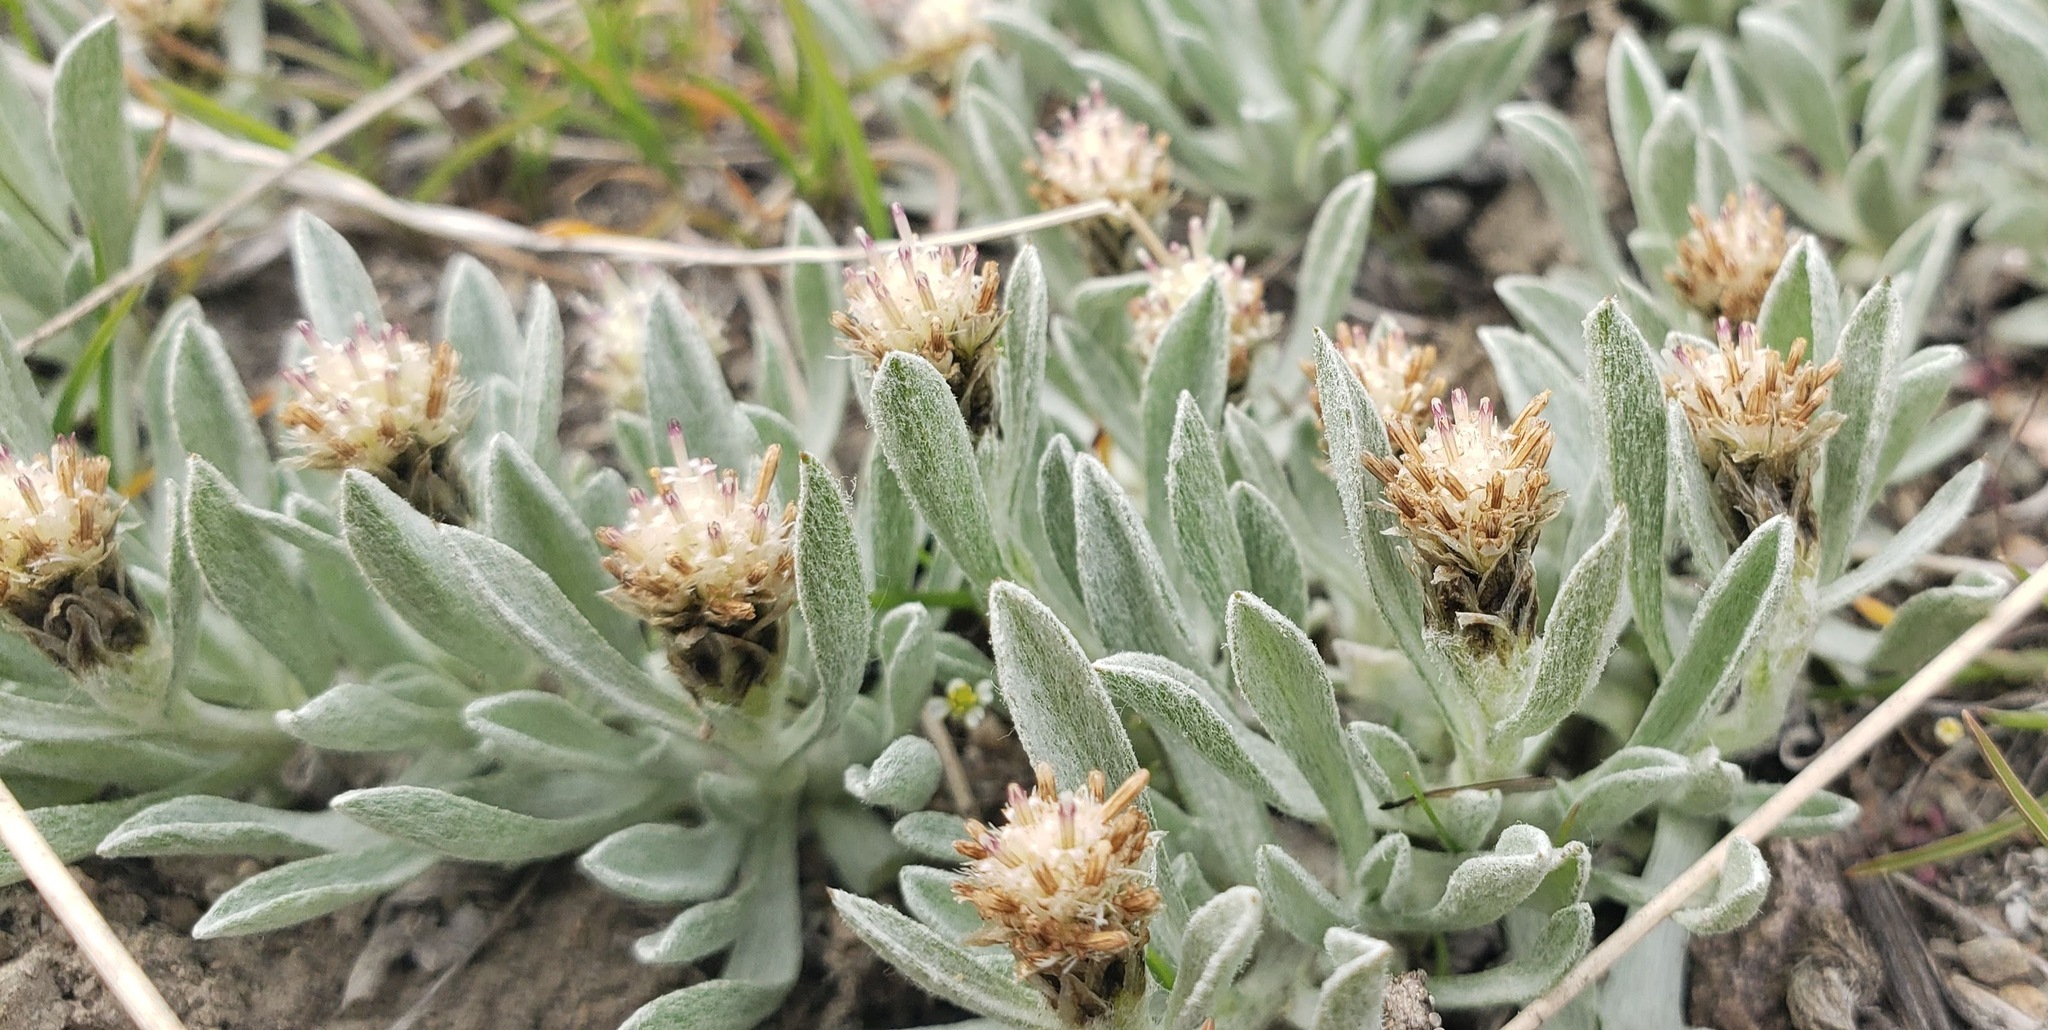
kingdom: Plantae
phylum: Tracheophyta
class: Magnoliopsida
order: Asterales
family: Asteraceae
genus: Antennaria
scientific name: Antennaria dimorpha
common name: Cushion pussytoes
